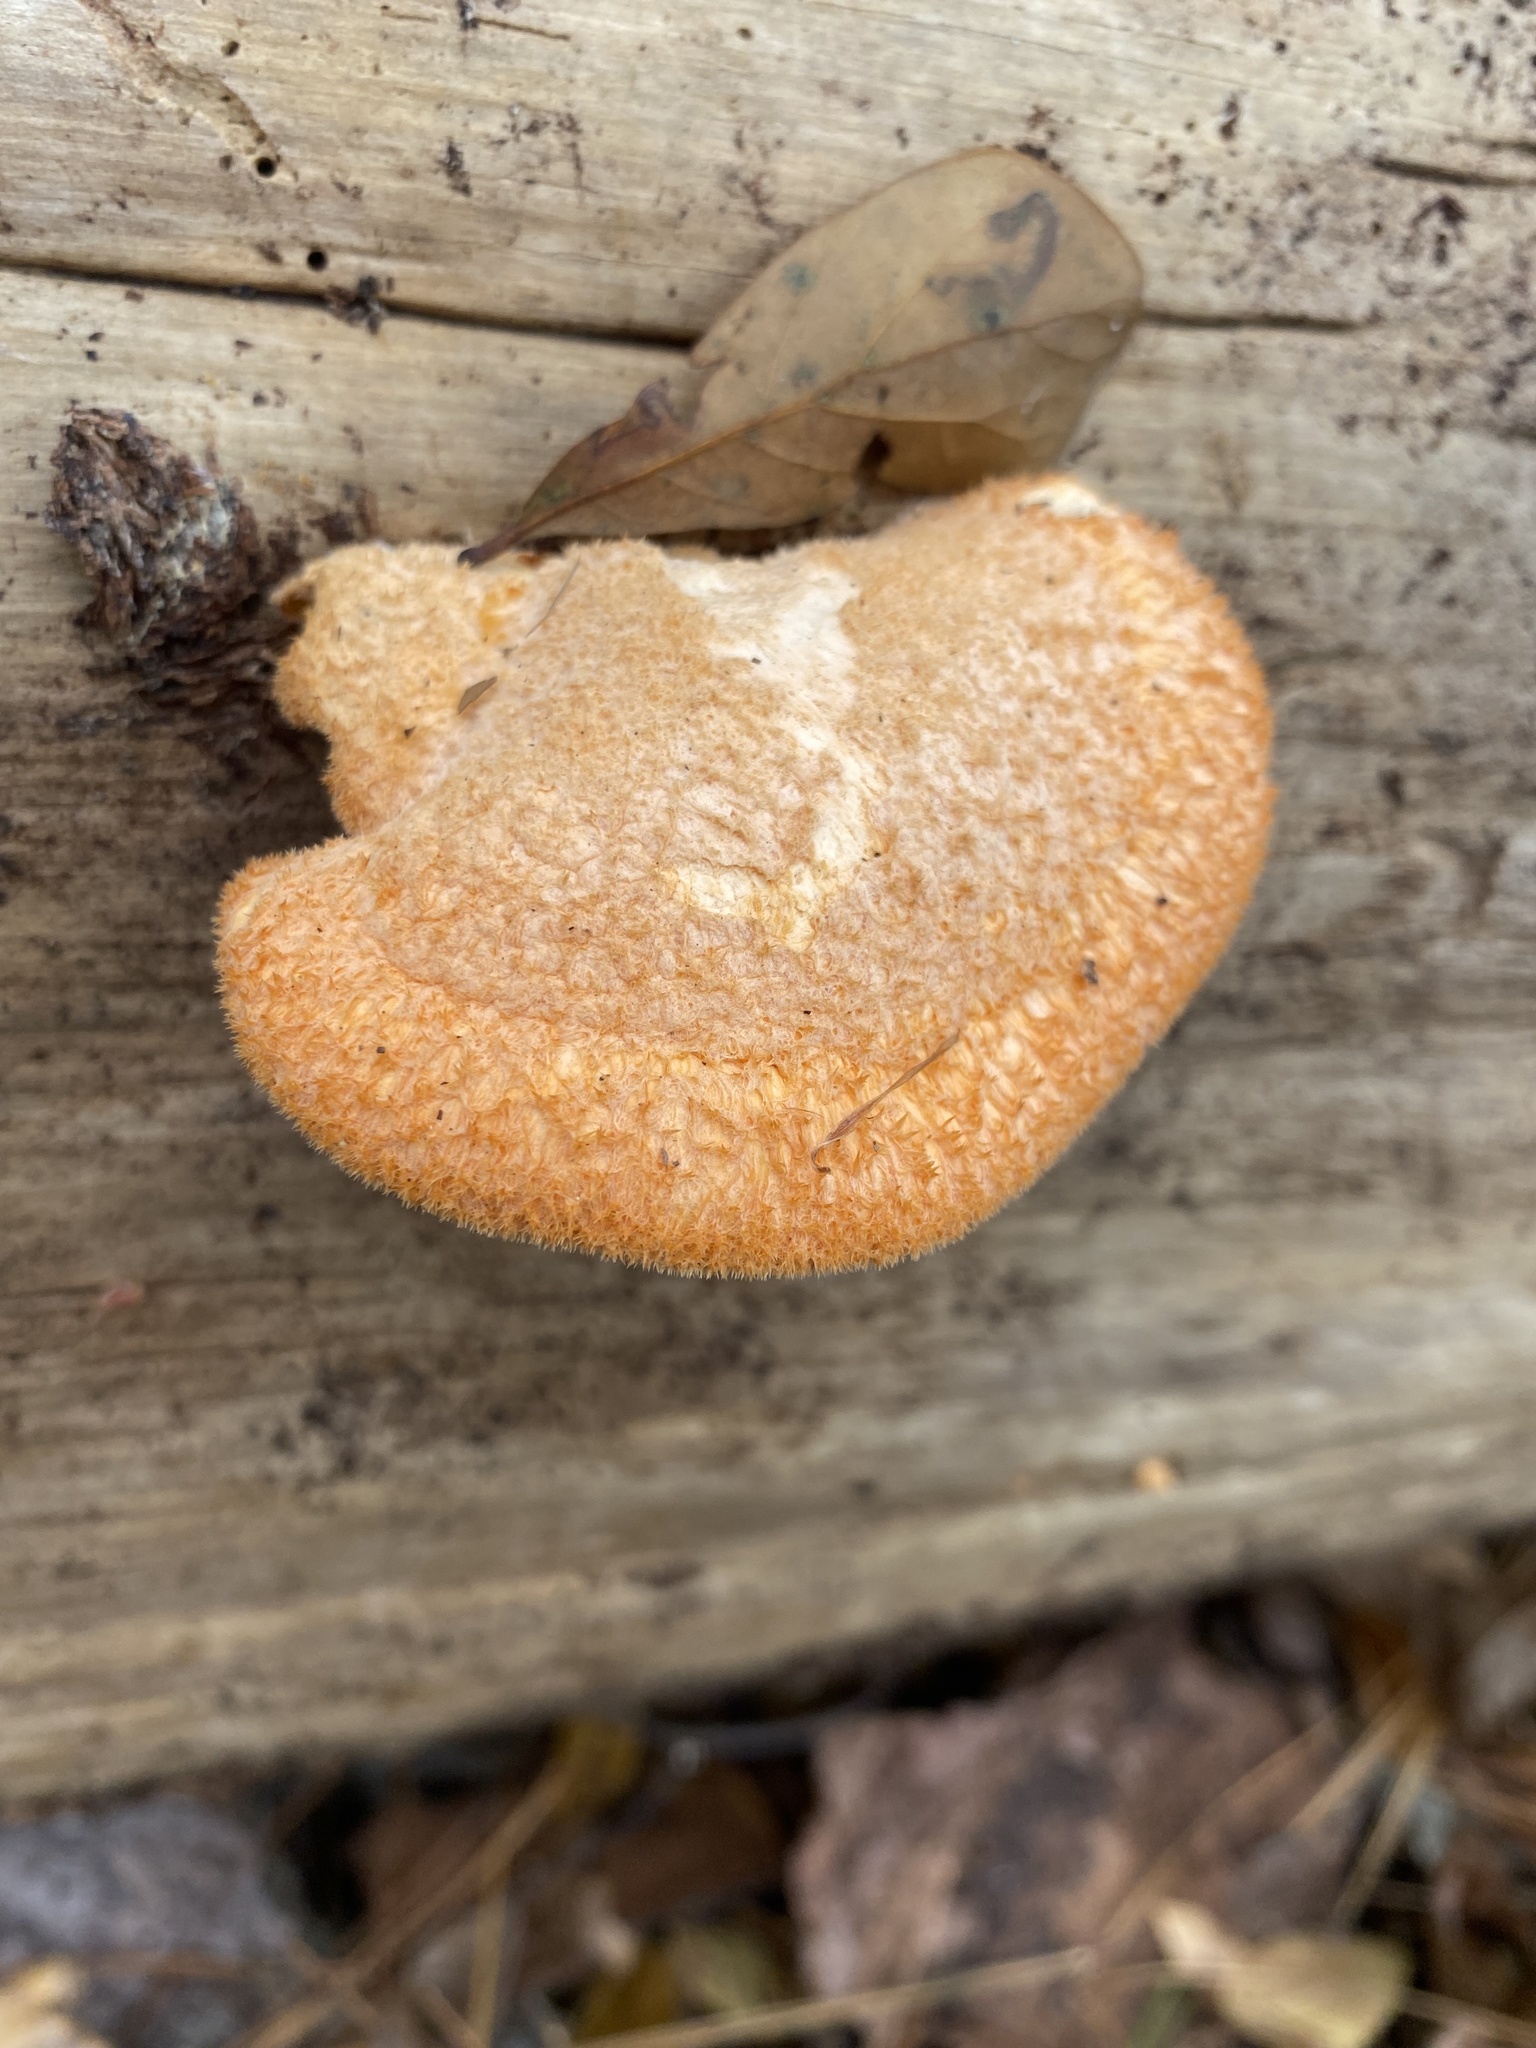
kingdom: Fungi
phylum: Basidiomycota
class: Agaricomycetes
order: Agaricales
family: Phyllotopsidaceae
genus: Phyllotopsis
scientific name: Phyllotopsis nidulans
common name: Orange mock oyster
